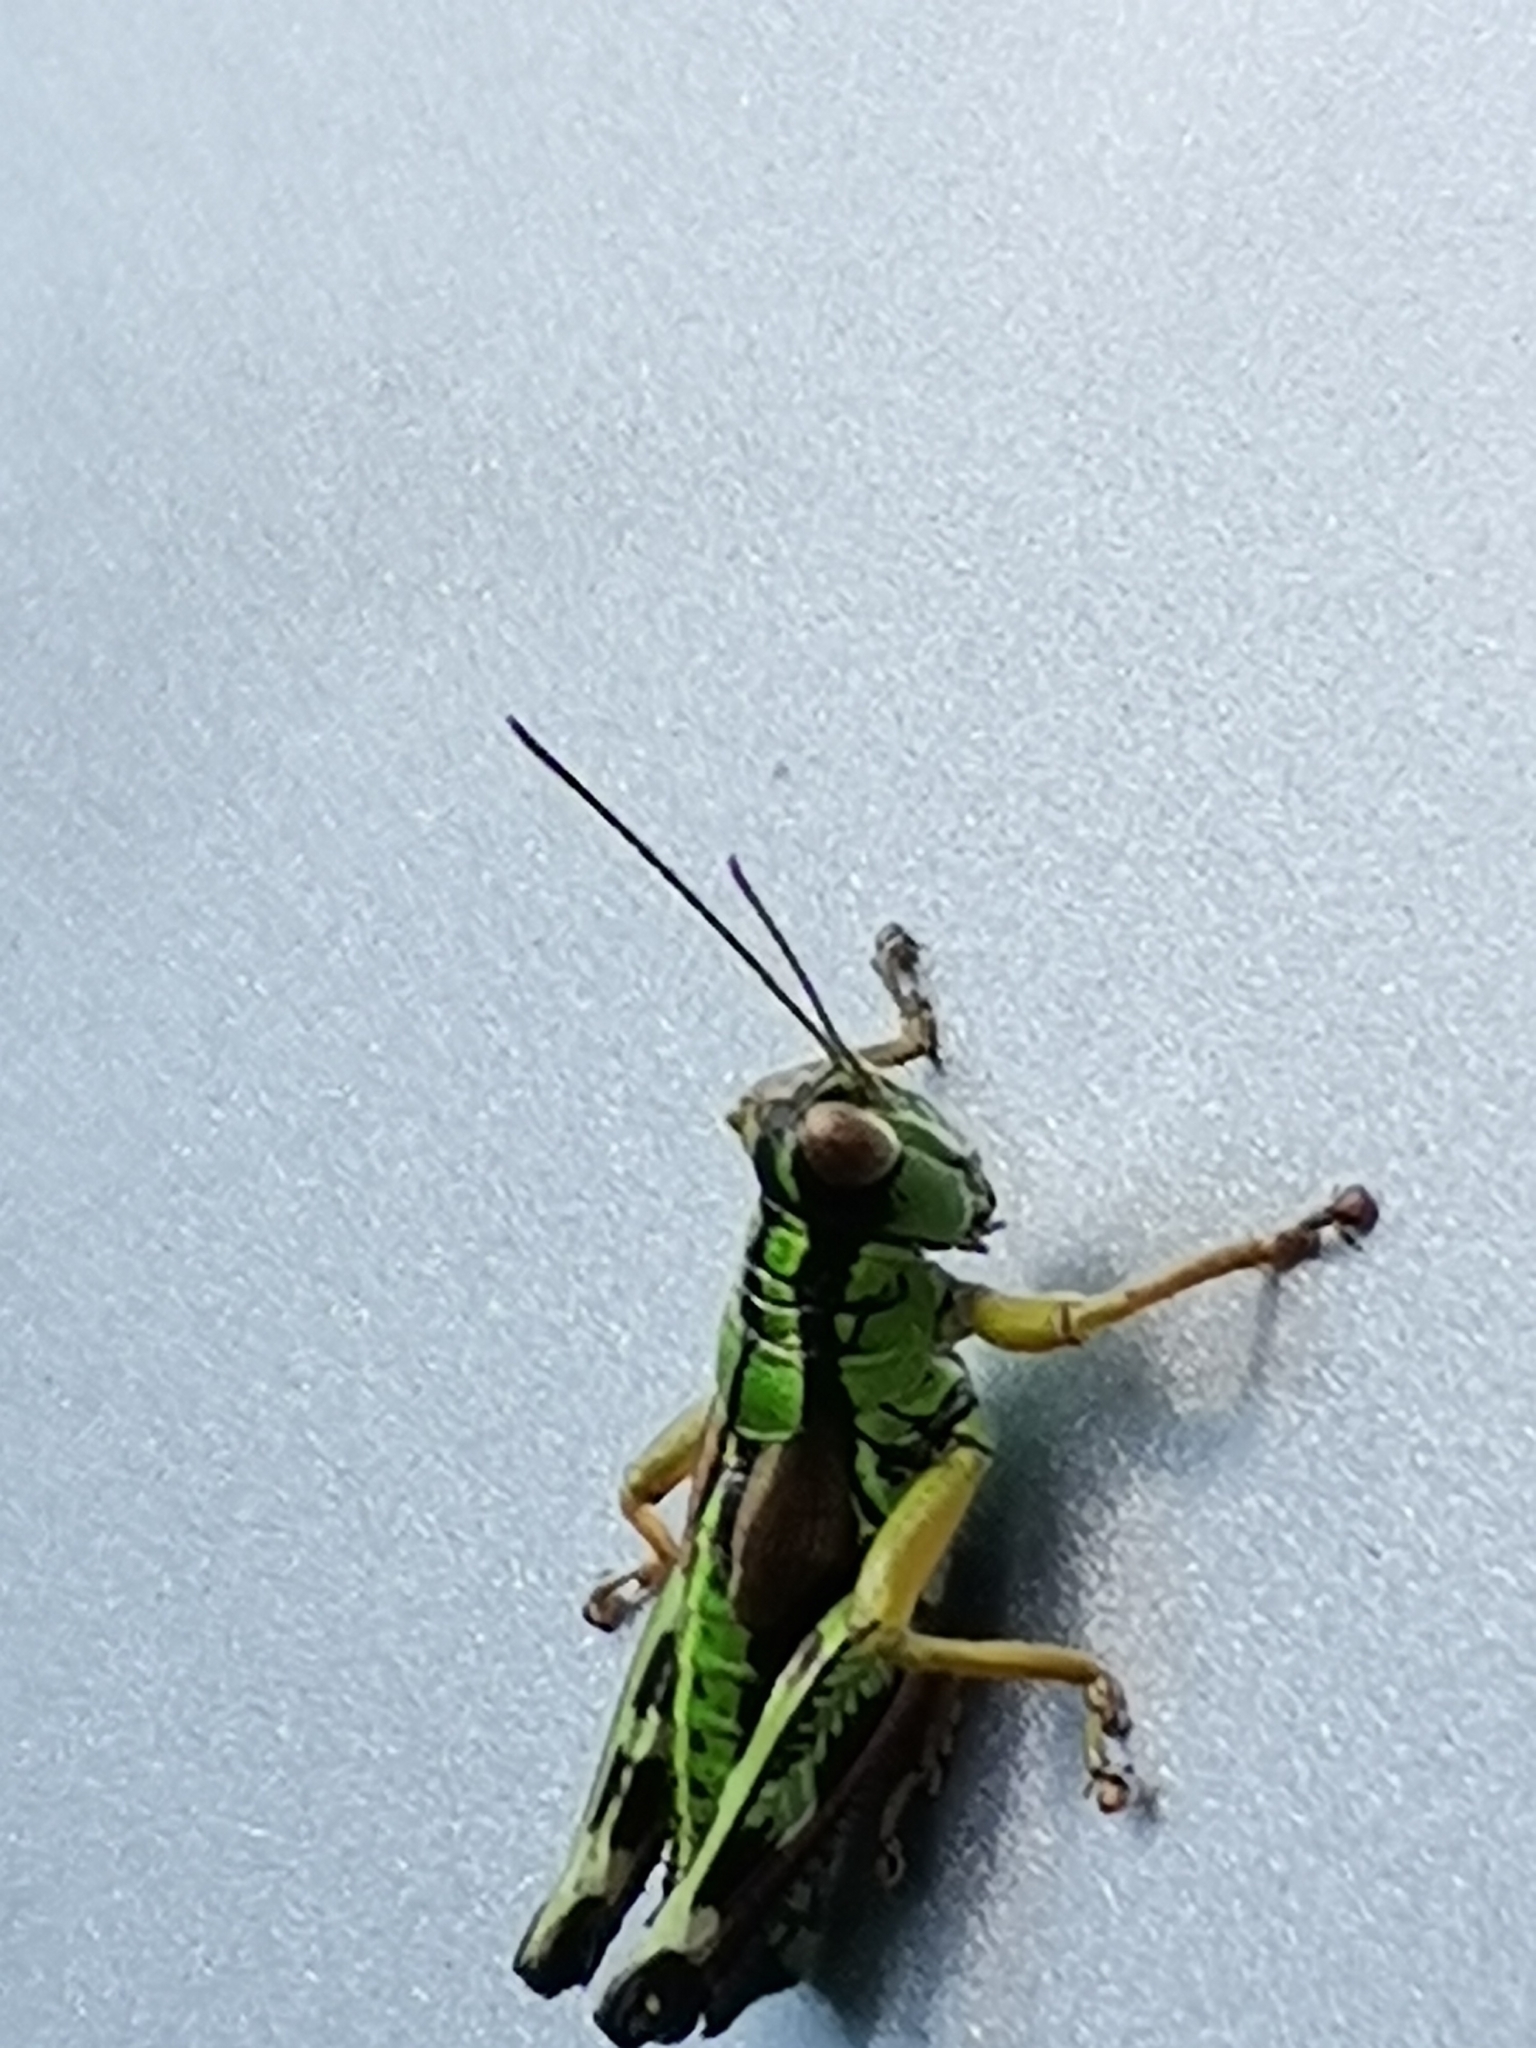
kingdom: Animalia
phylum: Arthropoda
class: Insecta
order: Orthoptera
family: Acrididae
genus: Miramella
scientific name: Miramella alpina
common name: Green mountain grasshopper
